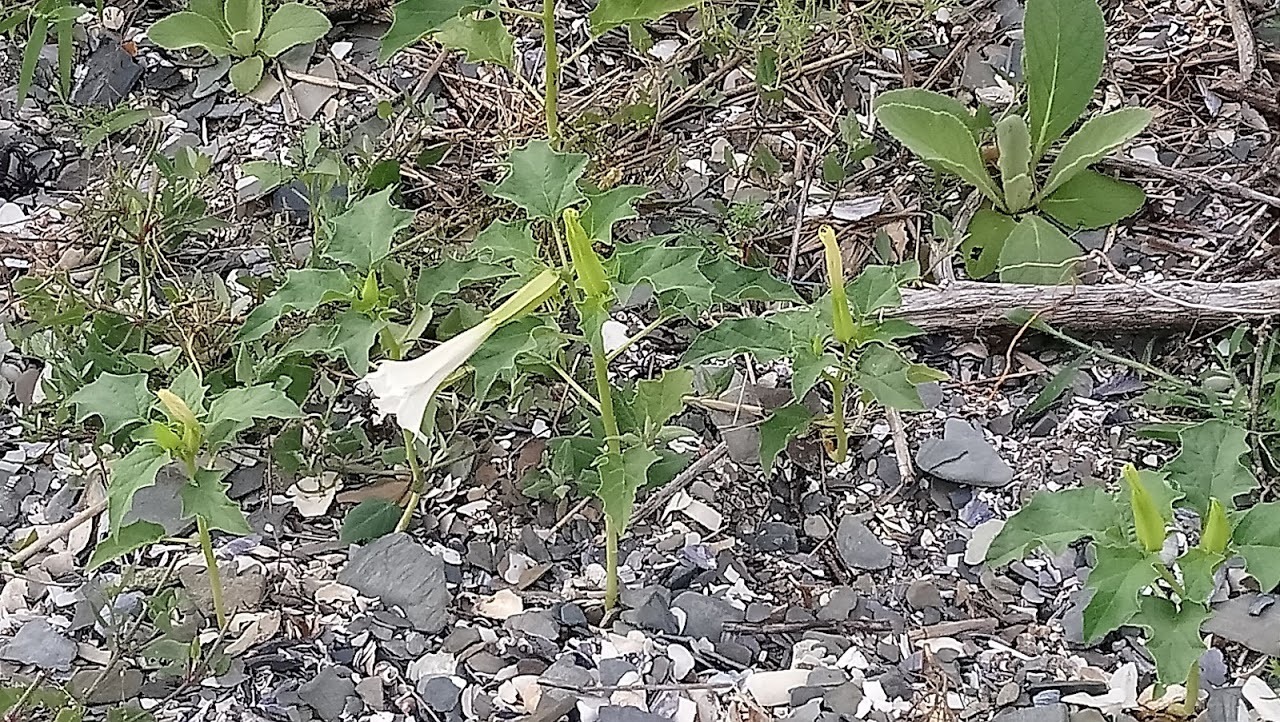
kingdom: Plantae
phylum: Tracheophyta
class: Magnoliopsida
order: Solanales
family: Solanaceae
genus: Datura
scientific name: Datura stramonium
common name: Thorn-apple
